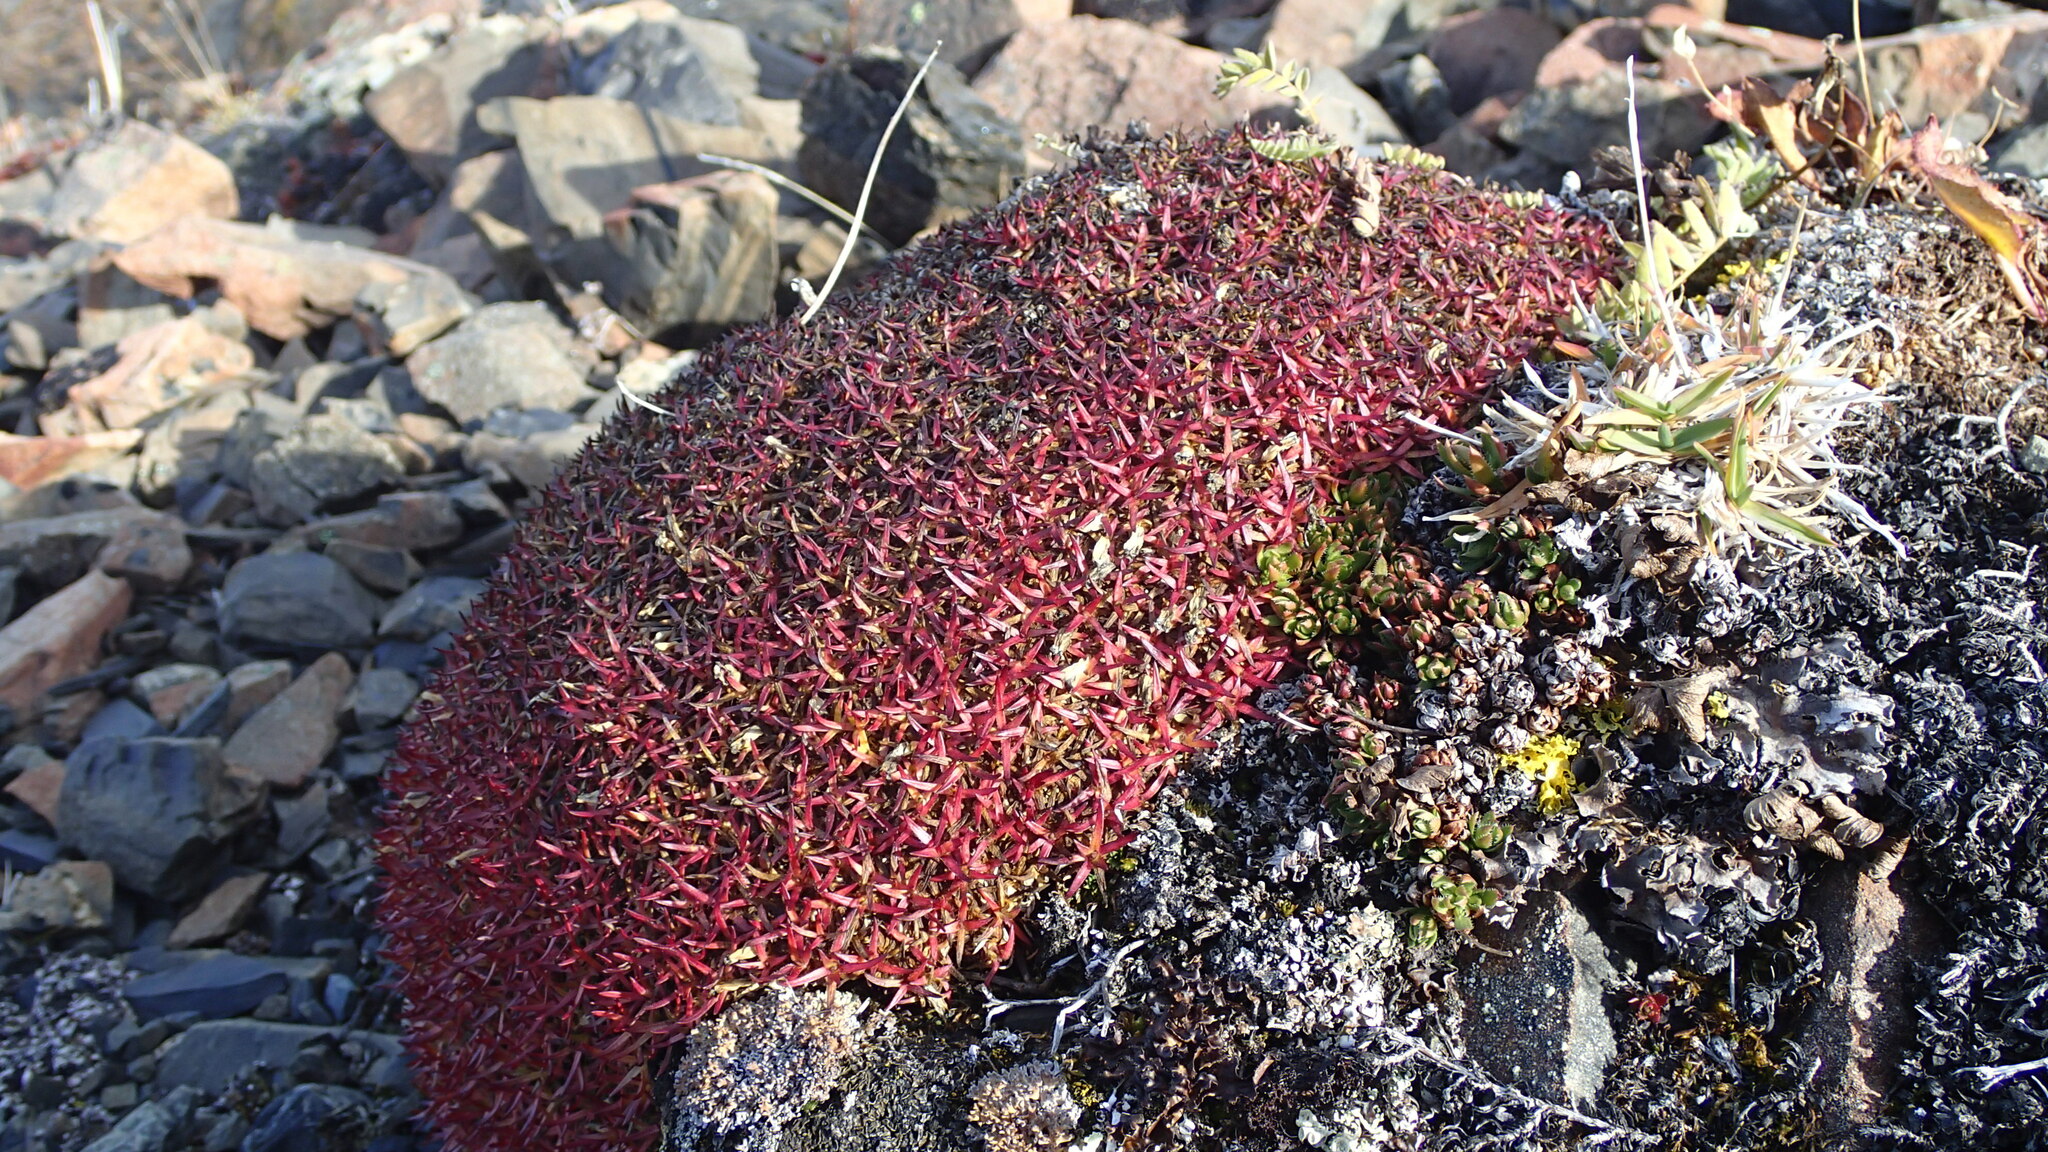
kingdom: Plantae
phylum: Tracheophyta
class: Magnoliopsida
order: Caryophyllales
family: Caryophyllaceae
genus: Silene
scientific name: Silene acaulis
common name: Moss campion
